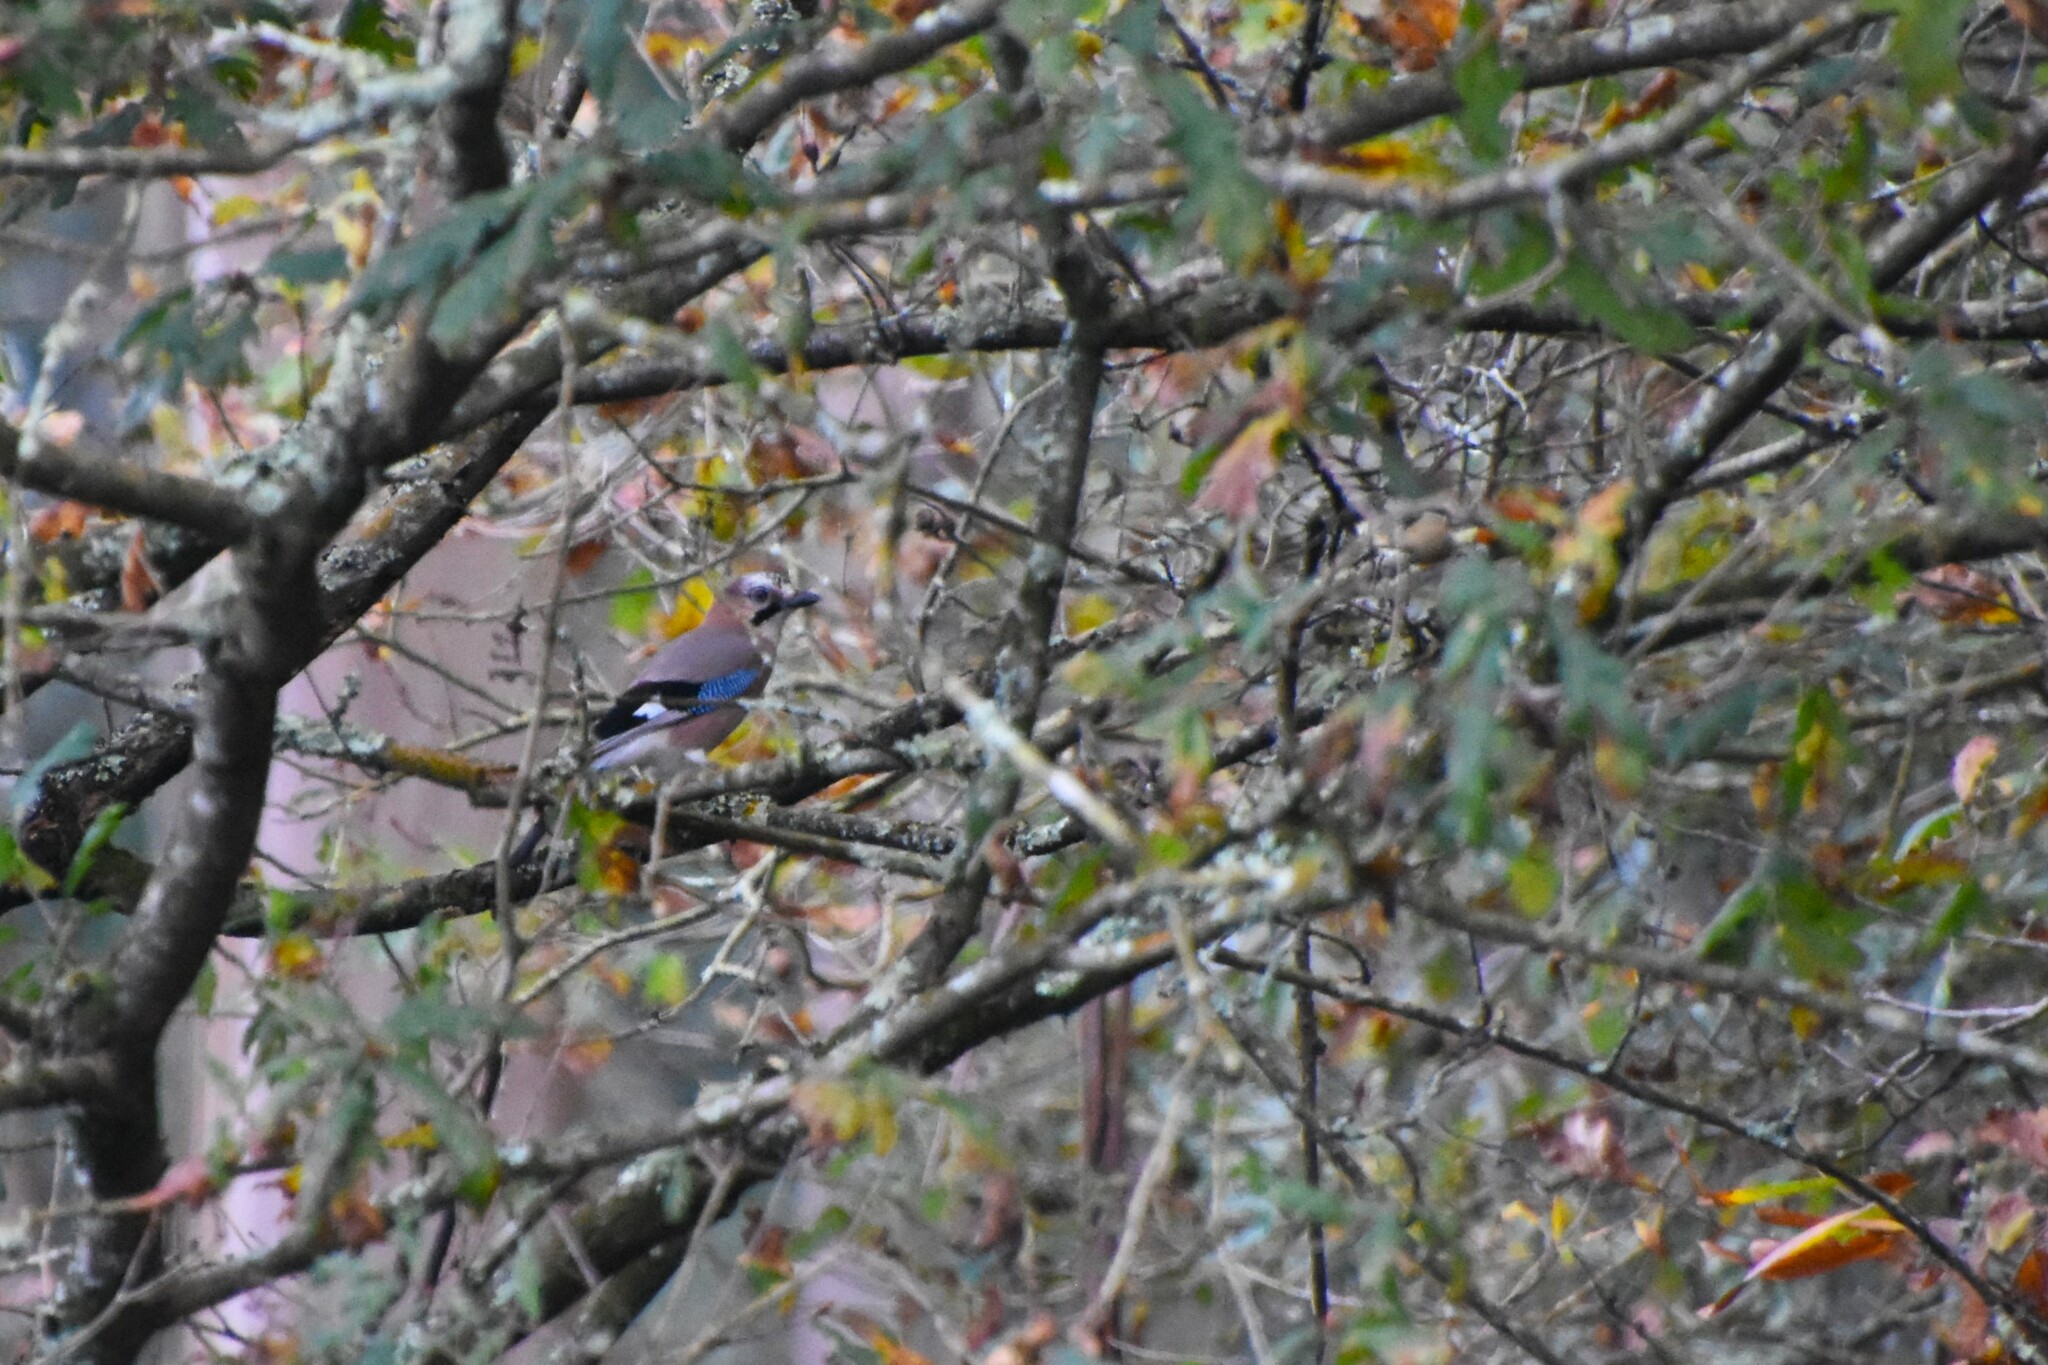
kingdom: Animalia
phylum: Chordata
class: Aves
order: Passeriformes
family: Corvidae
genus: Garrulus
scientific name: Garrulus glandarius
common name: Eurasian jay
